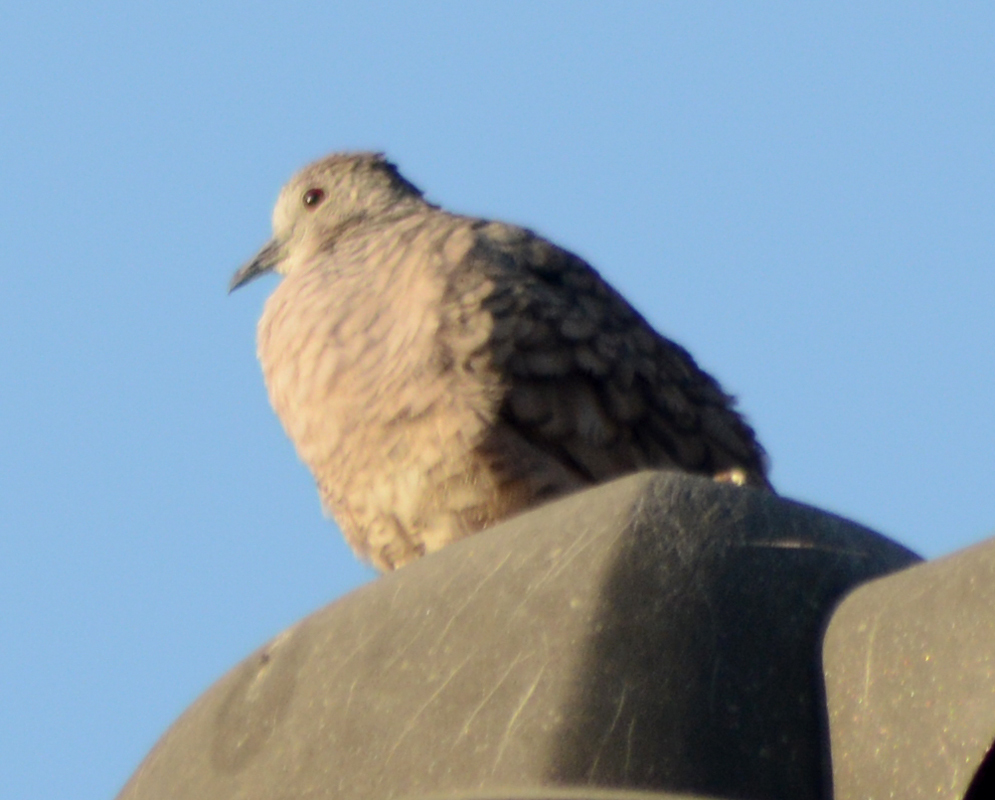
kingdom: Animalia
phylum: Chordata
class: Aves
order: Columbiformes
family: Columbidae
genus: Columbina
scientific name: Columbina inca
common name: Inca dove
